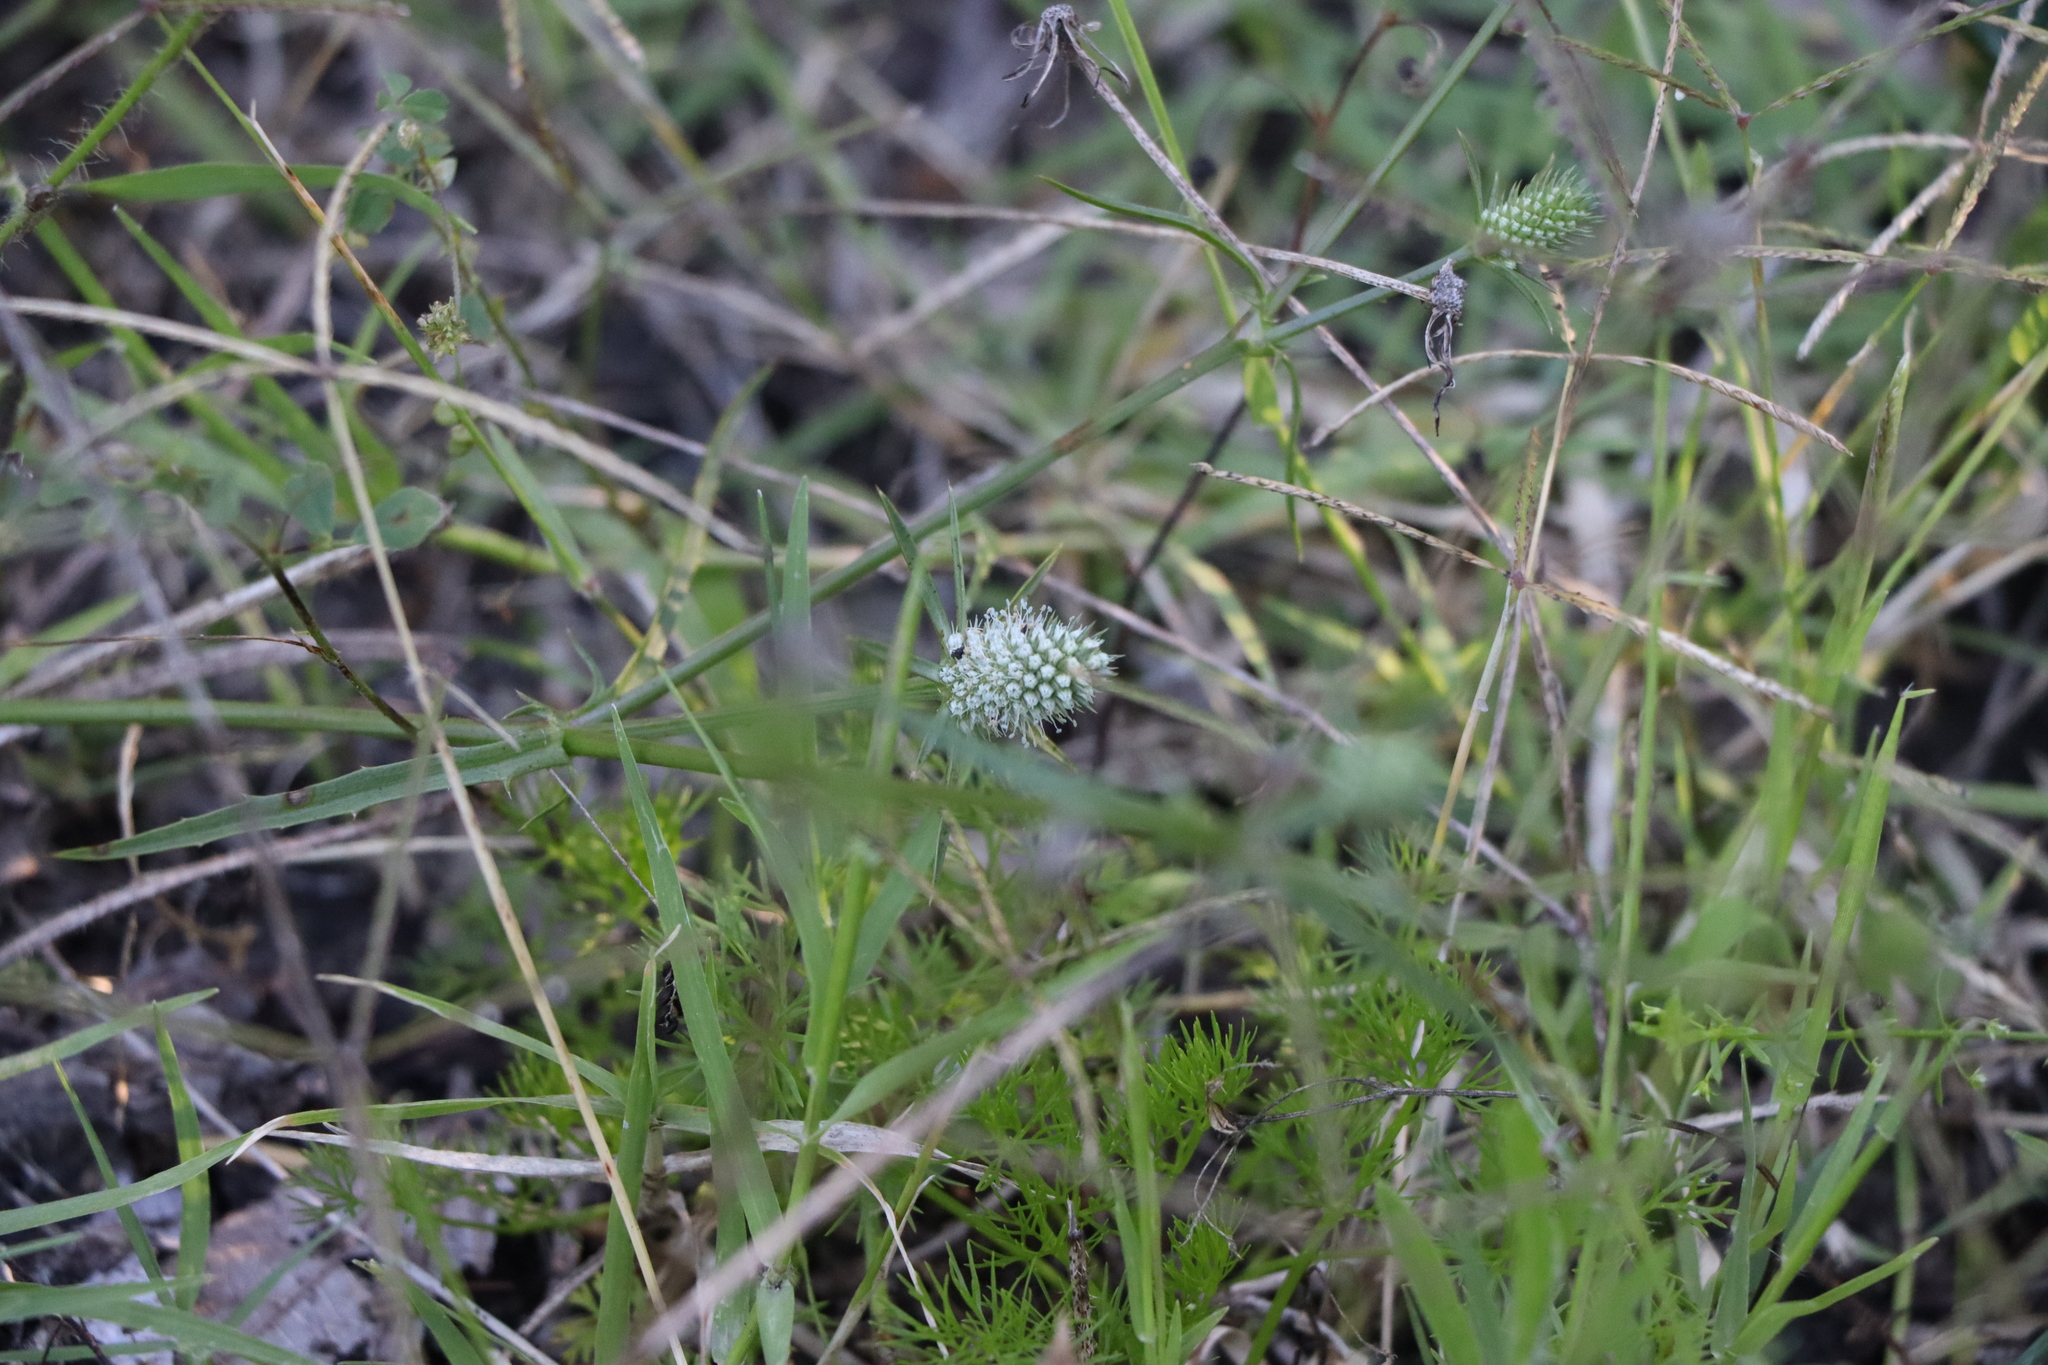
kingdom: Plantae
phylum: Tracheophyta
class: Magnoliopsida
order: Apiales
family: Apiaceae
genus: Eryngium
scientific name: Eryngium echinatum
